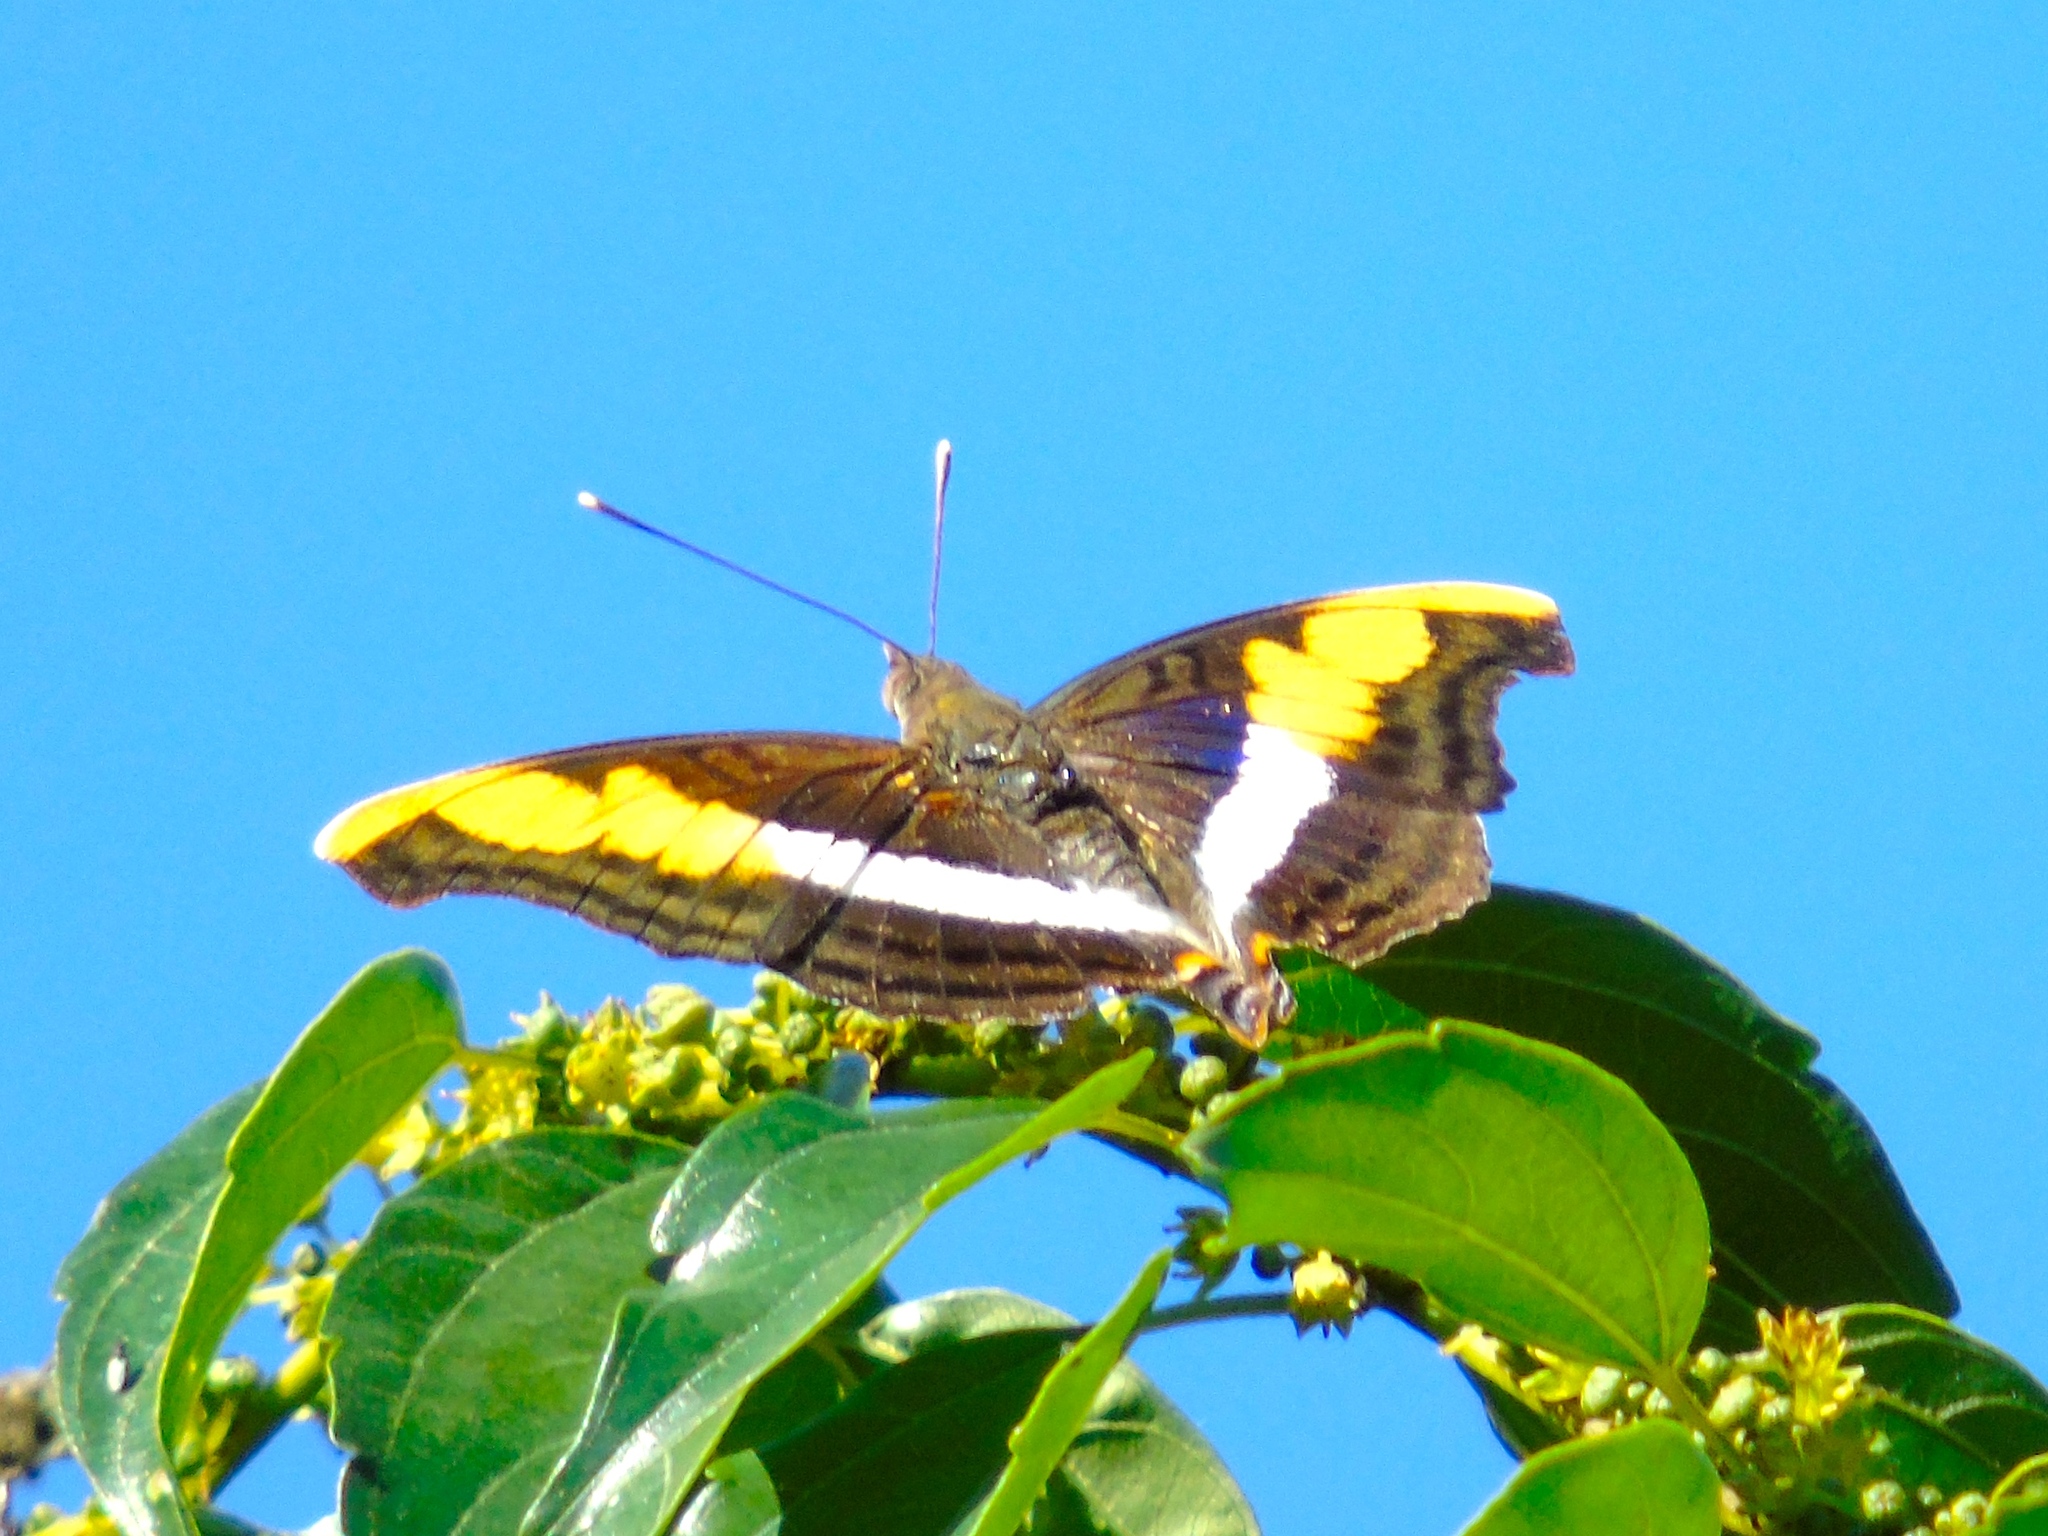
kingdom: Animalia
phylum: Arthropoda
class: Insecta
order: Lepidoptera
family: Nymphalidae
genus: Doxocopa
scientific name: Doxocopa laure
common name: Silver emperor
